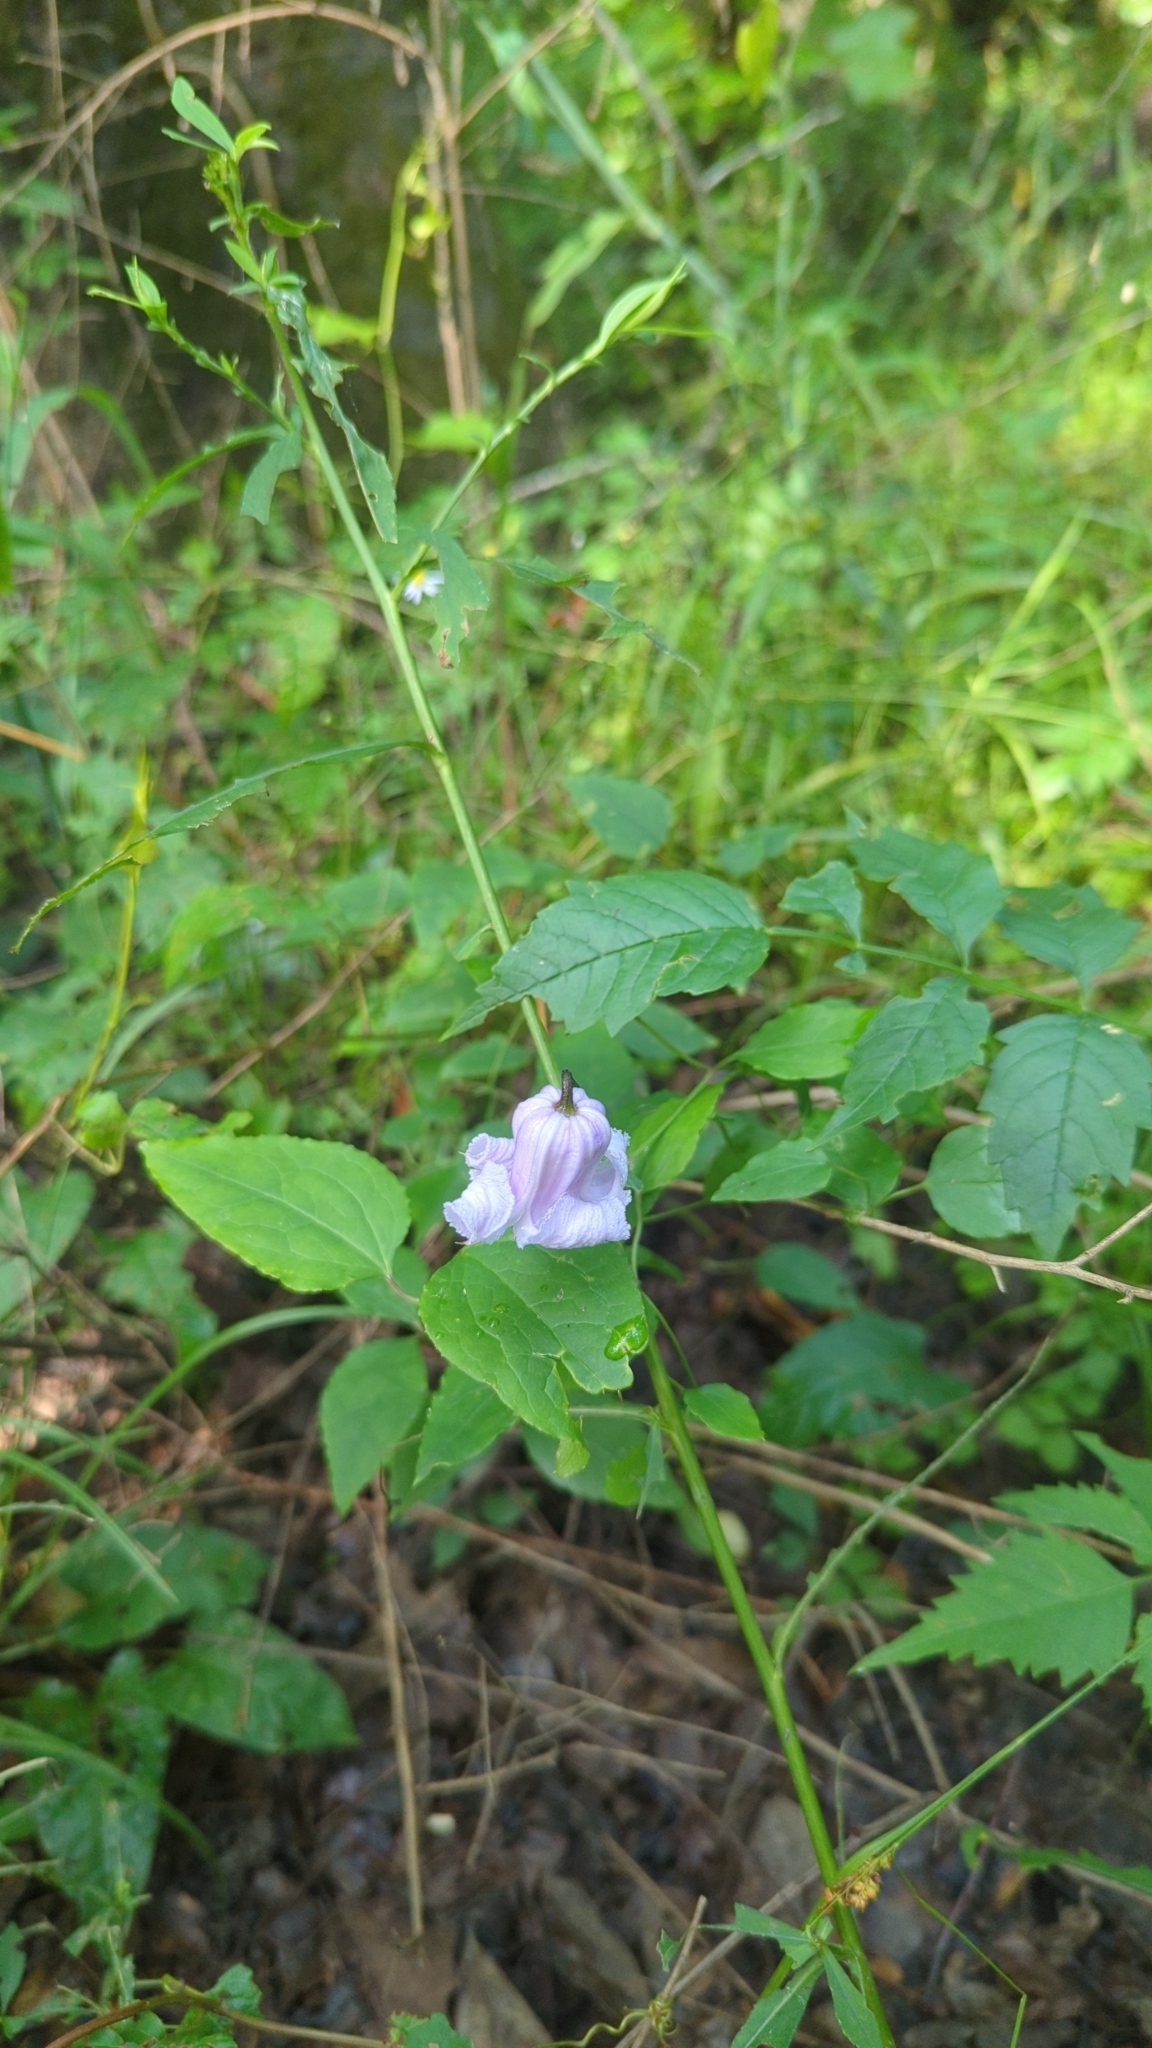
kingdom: Plantae
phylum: Tracheophyta
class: Magnoliopsida
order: Ranunculales
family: Ranunculaceae
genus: Clematis
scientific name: Clematis crispa
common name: Curly clematis
